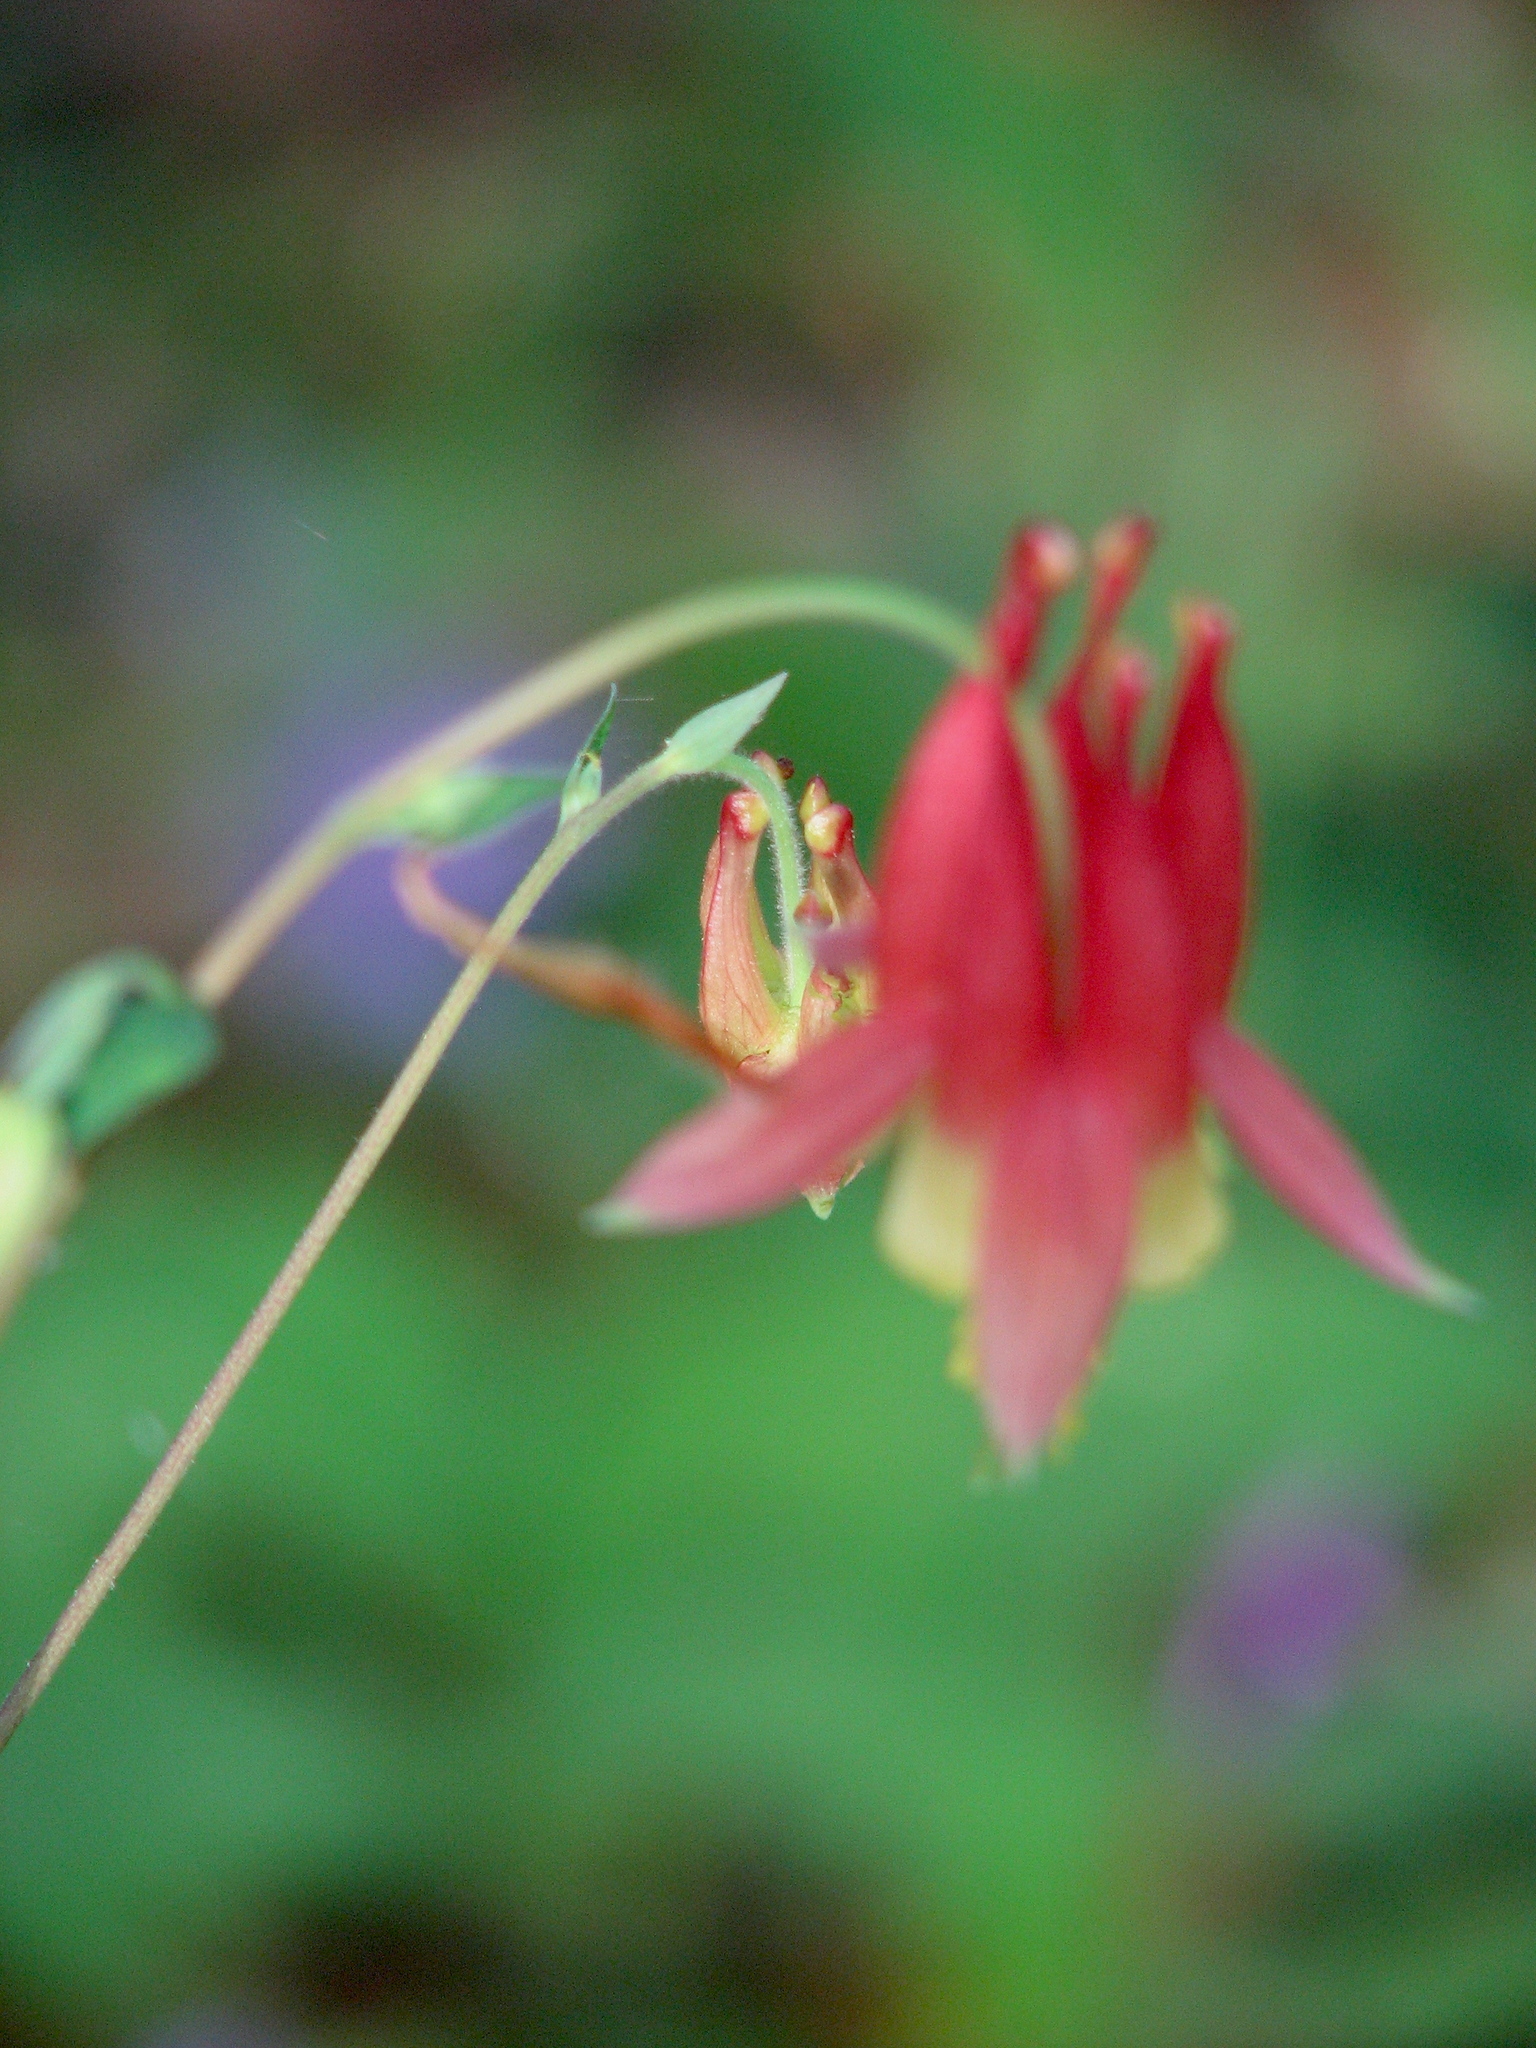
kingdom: Plantae
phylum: Tracheophyta
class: Magnoliopsida
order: Ranunculales
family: Ranunculaceae
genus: Aquilegia
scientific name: Aquilegia canadensis
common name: American columbine
